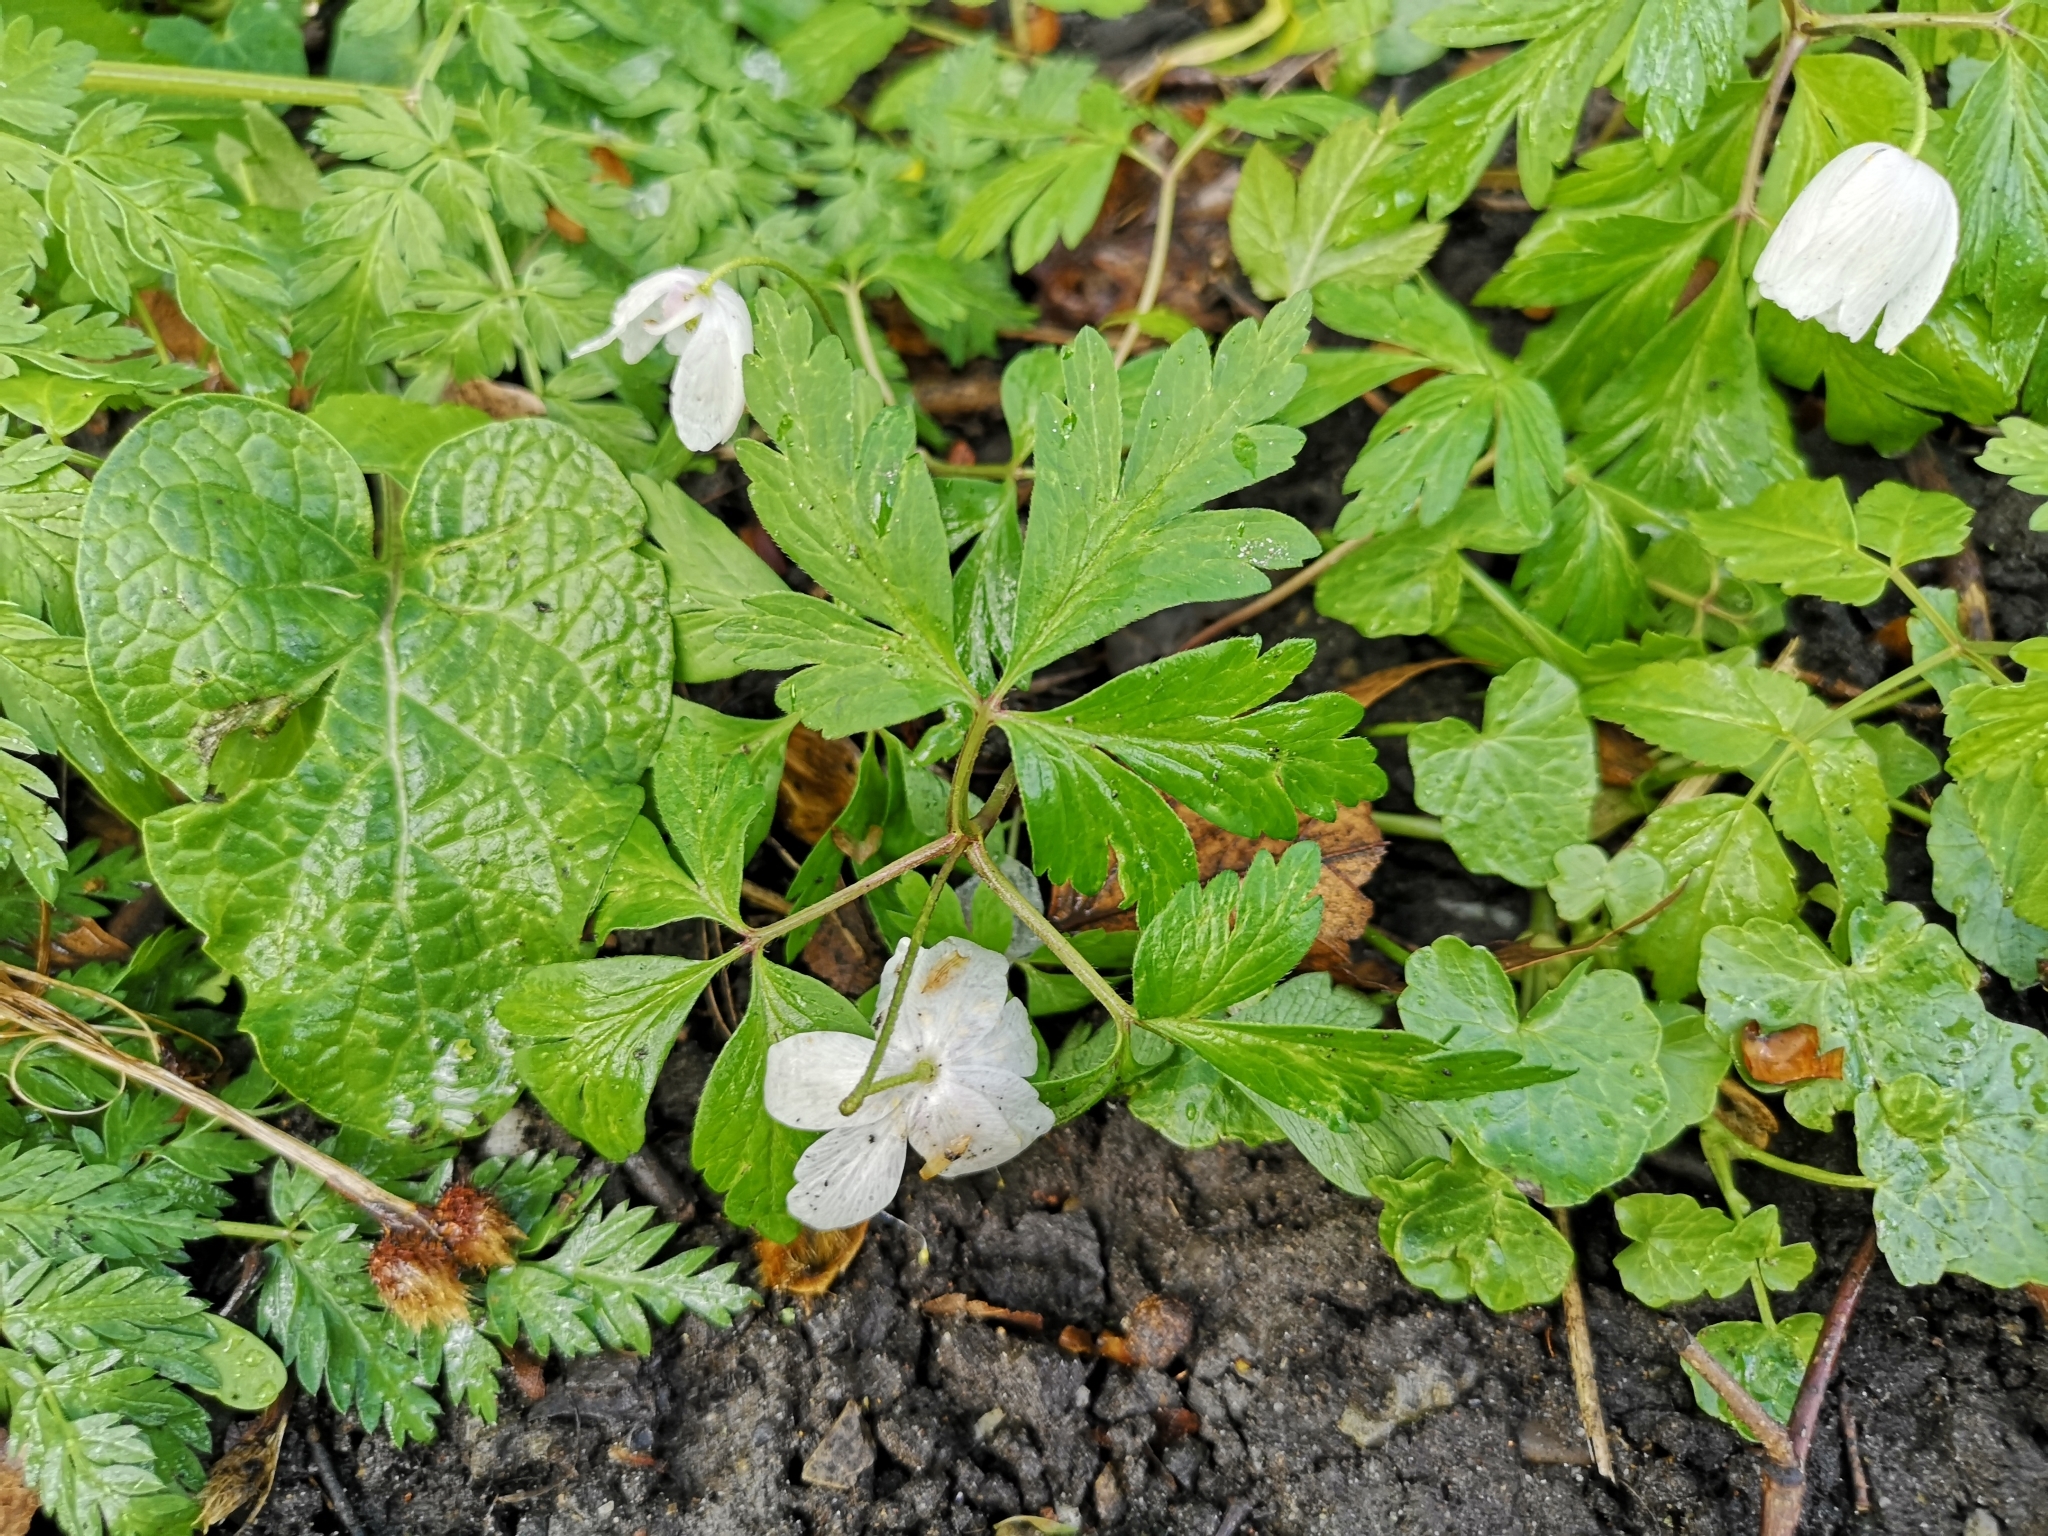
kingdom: Plantae
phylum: Tracheophyta
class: Magnoliopsida
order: Ranunculales
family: Ranunculaceae
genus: Anemone
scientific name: Anemone nemorosa
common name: Wood anemone
